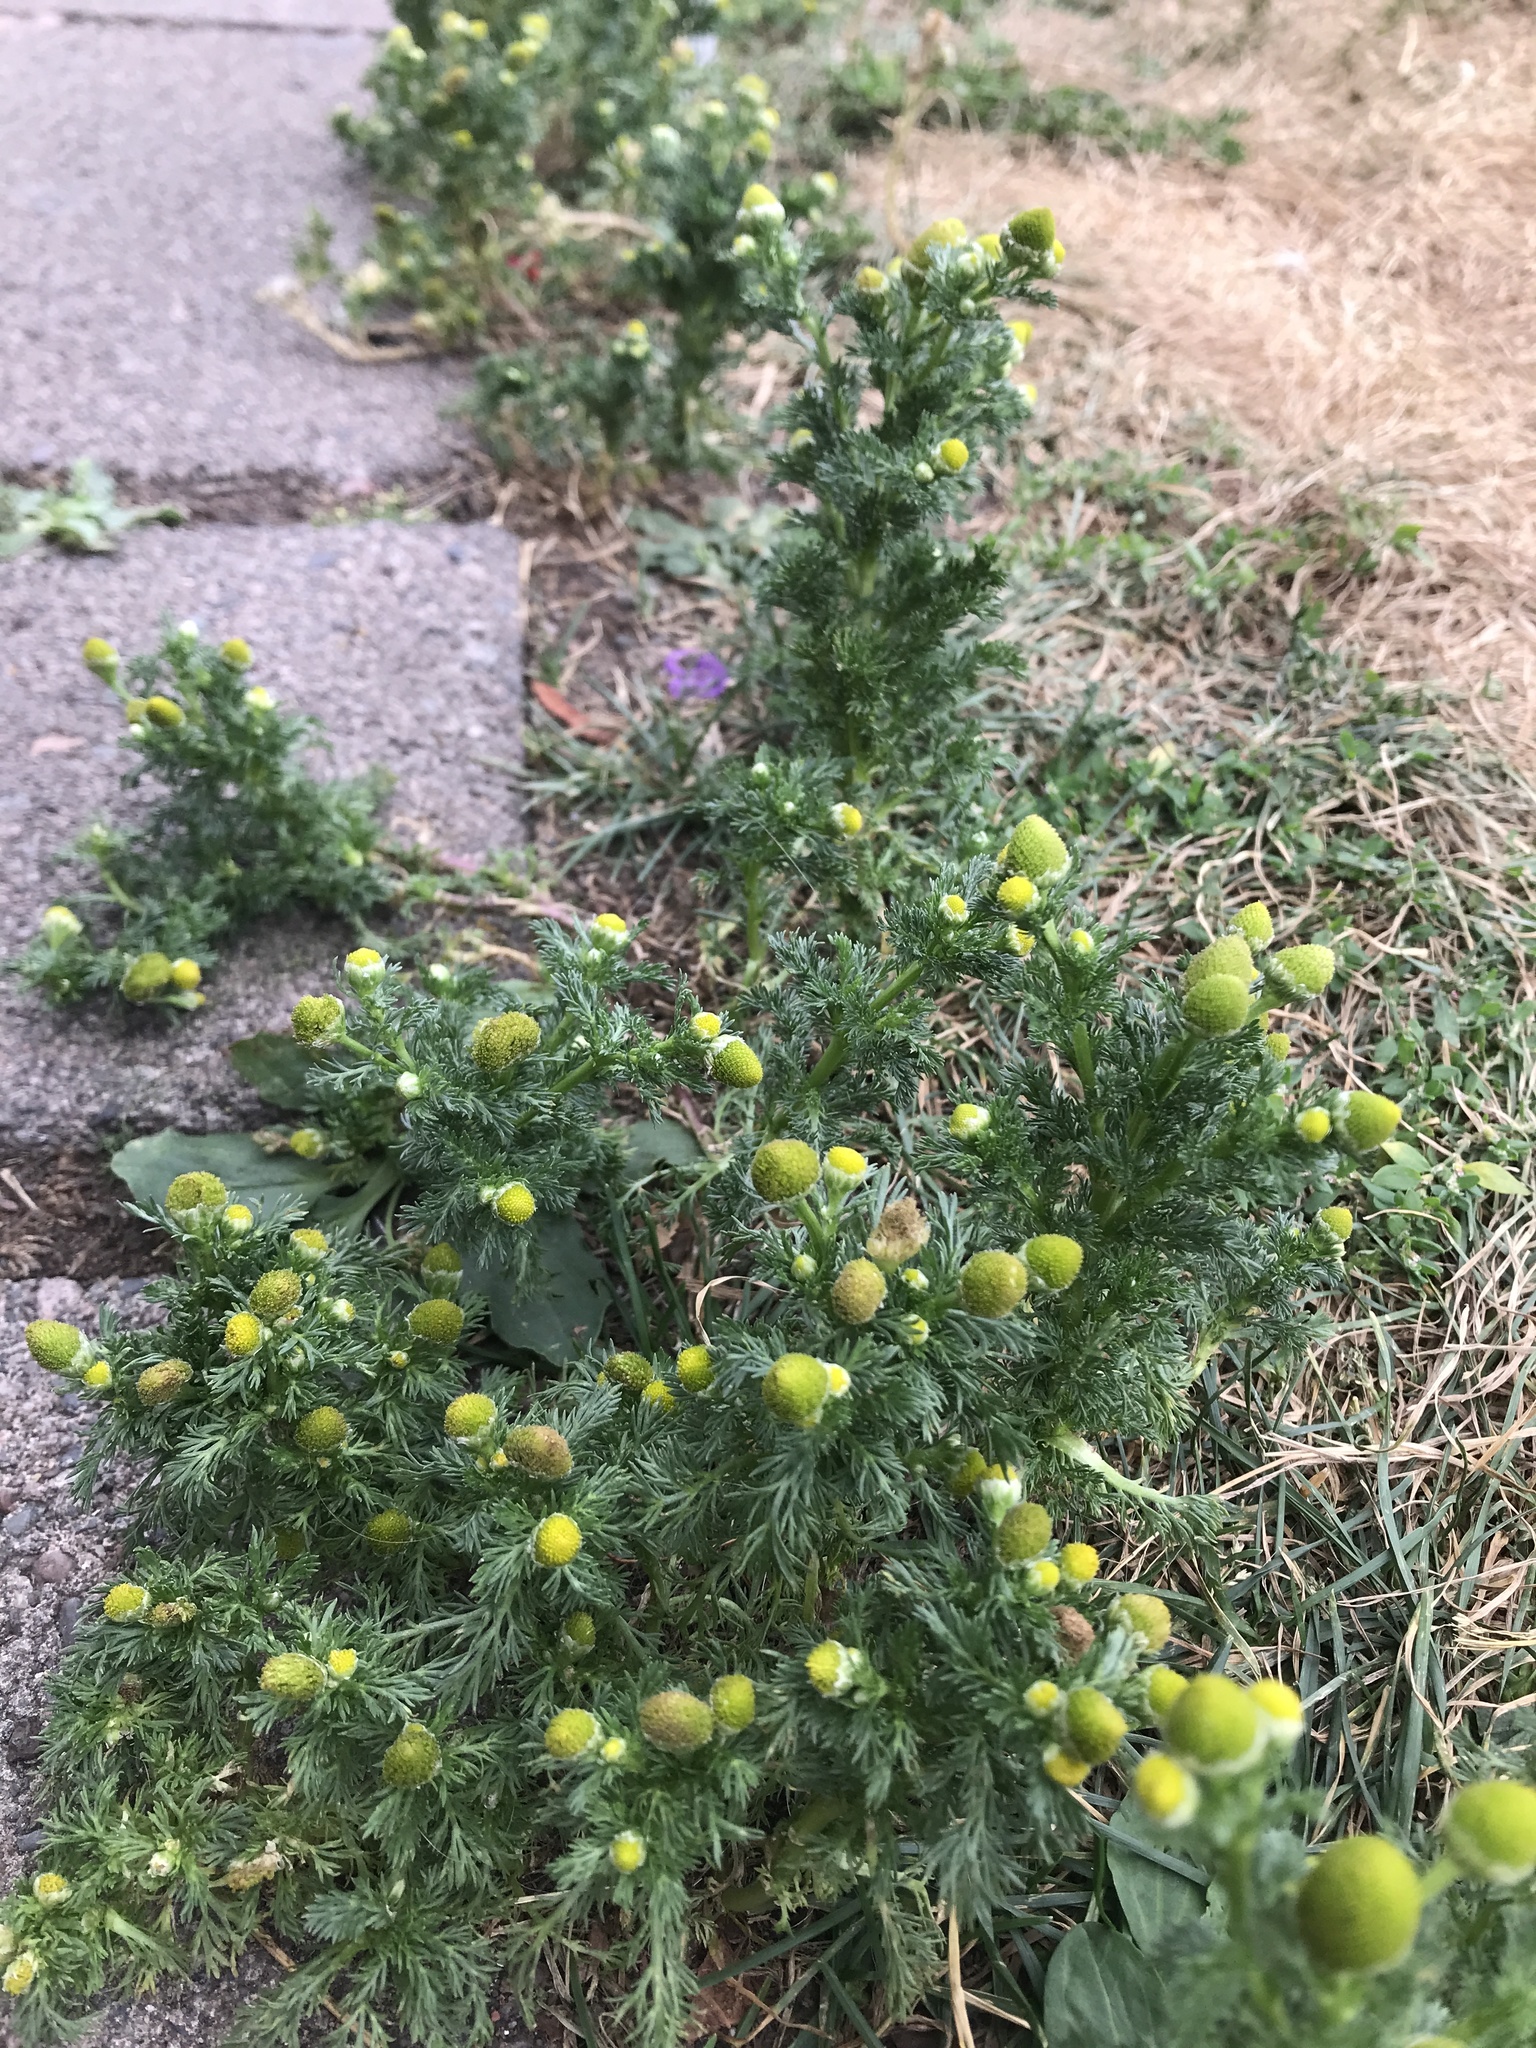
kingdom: Plantae
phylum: Tracheophyta
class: Magnoliopsida
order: Asterales
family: Asteraceae
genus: Matricaria
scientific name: Matricaria discoidea
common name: Disc mayweed
